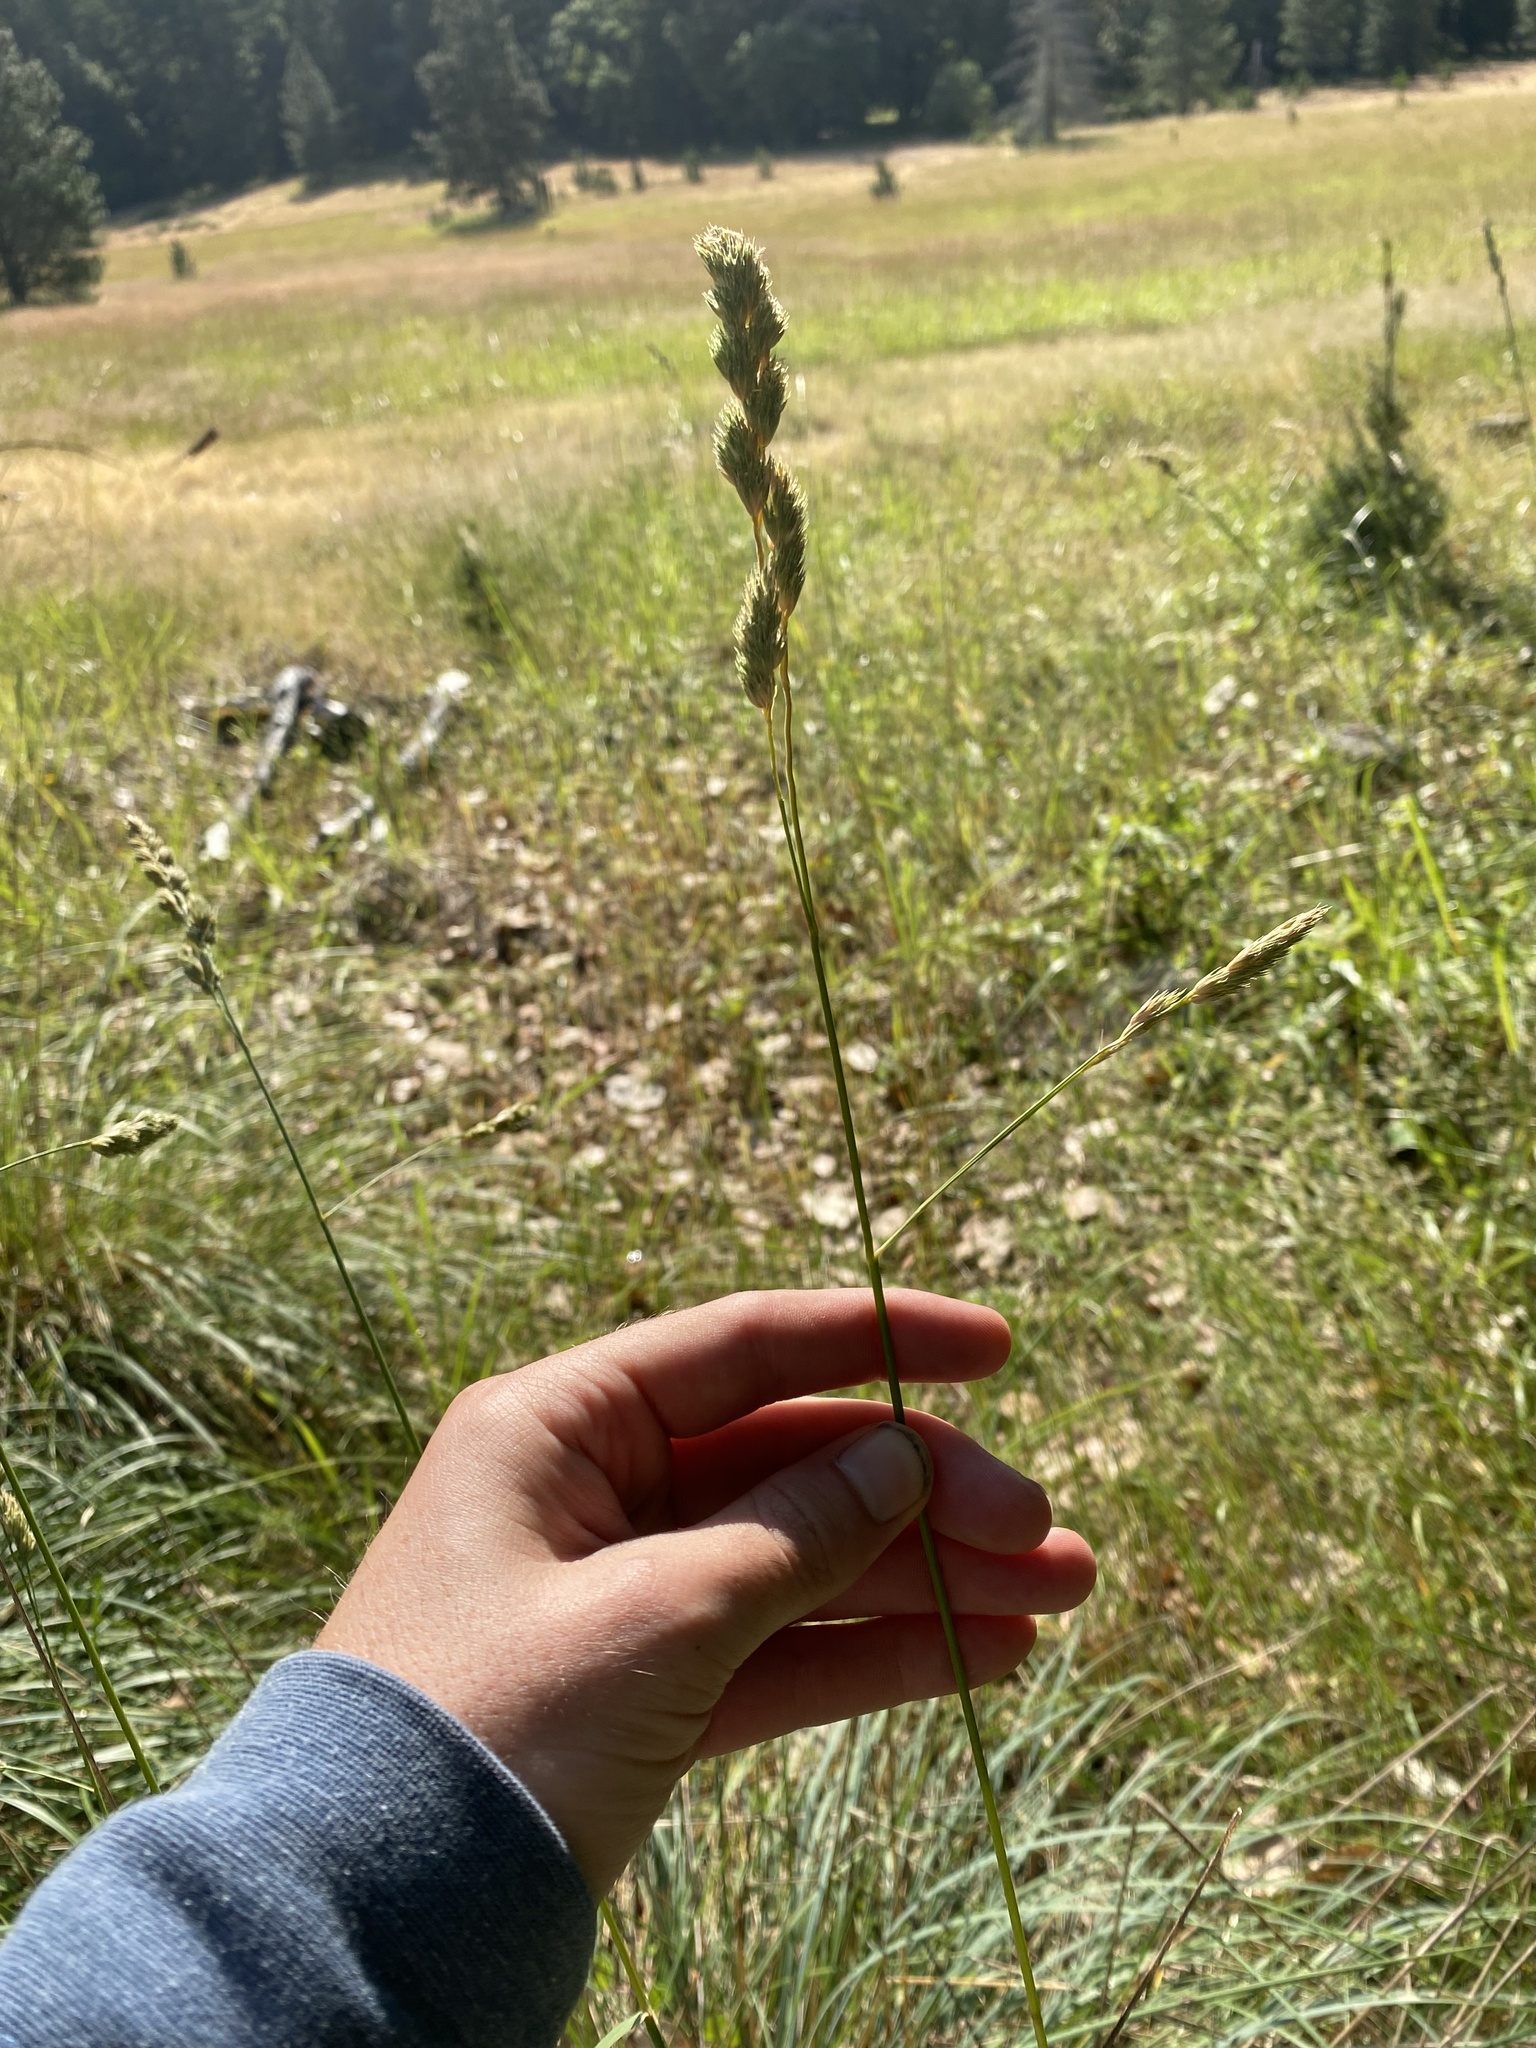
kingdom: Plantae
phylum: Tracheophyta
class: Liliopsida
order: Poales
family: Poaceae
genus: Dactylis
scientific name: Dactylis glomerata
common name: Orchardgrass
